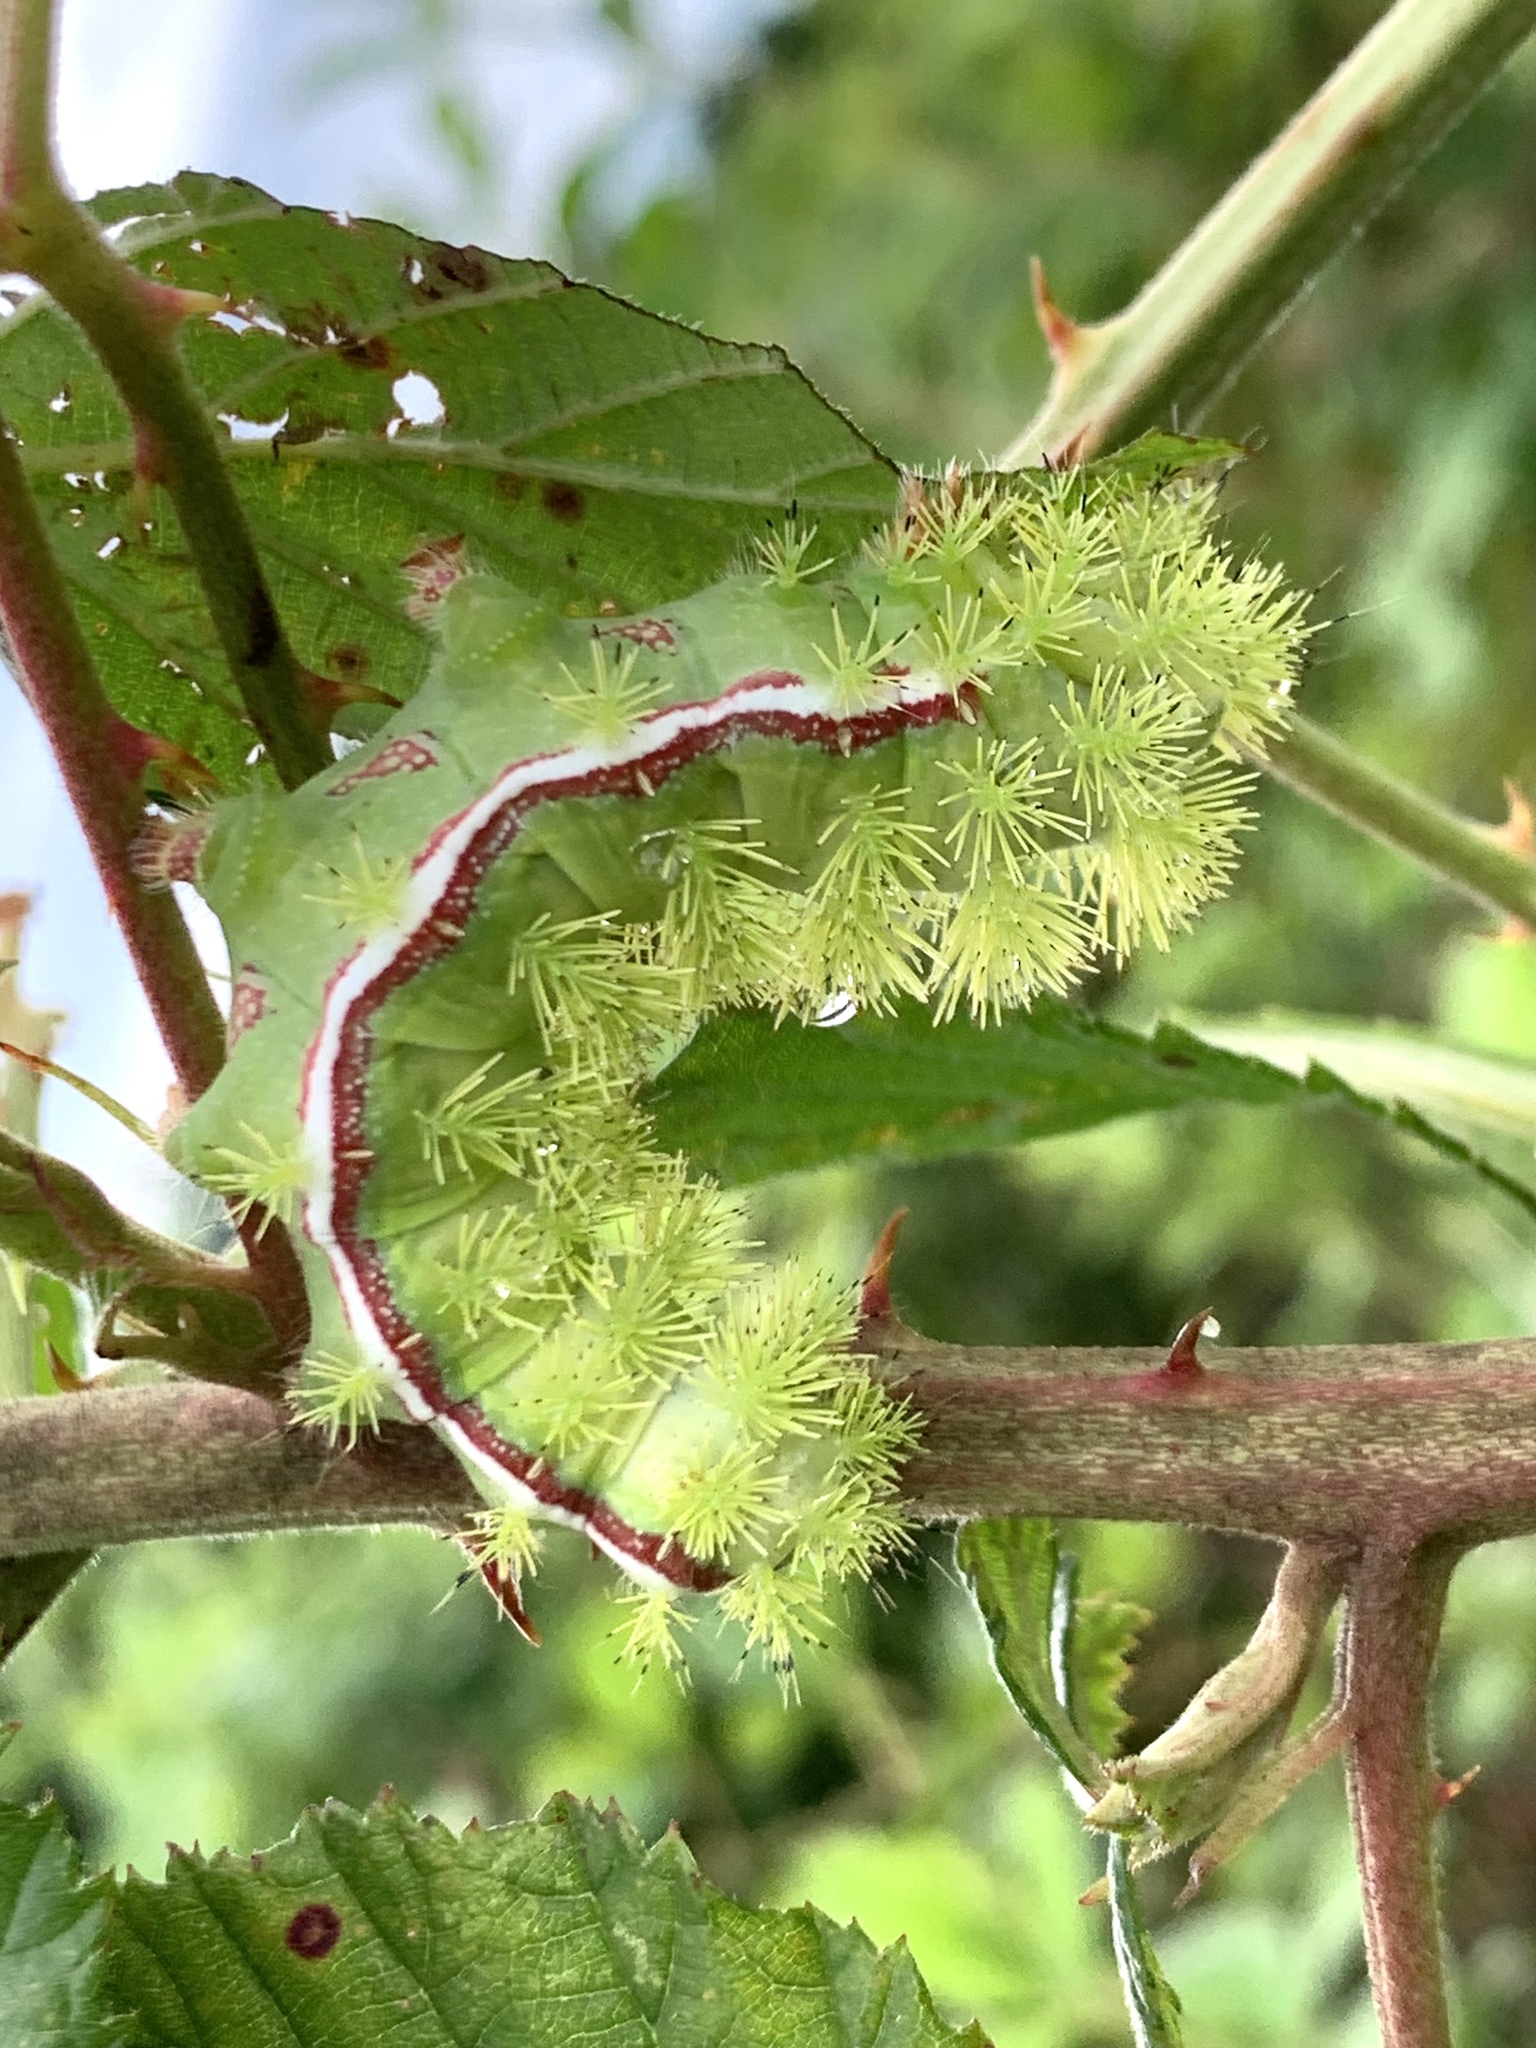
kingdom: Animalia
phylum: Arthropoda
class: Insecta
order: Lepidoptera
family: Saturniidae
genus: Automeris
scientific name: Automeris io
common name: Io moth
